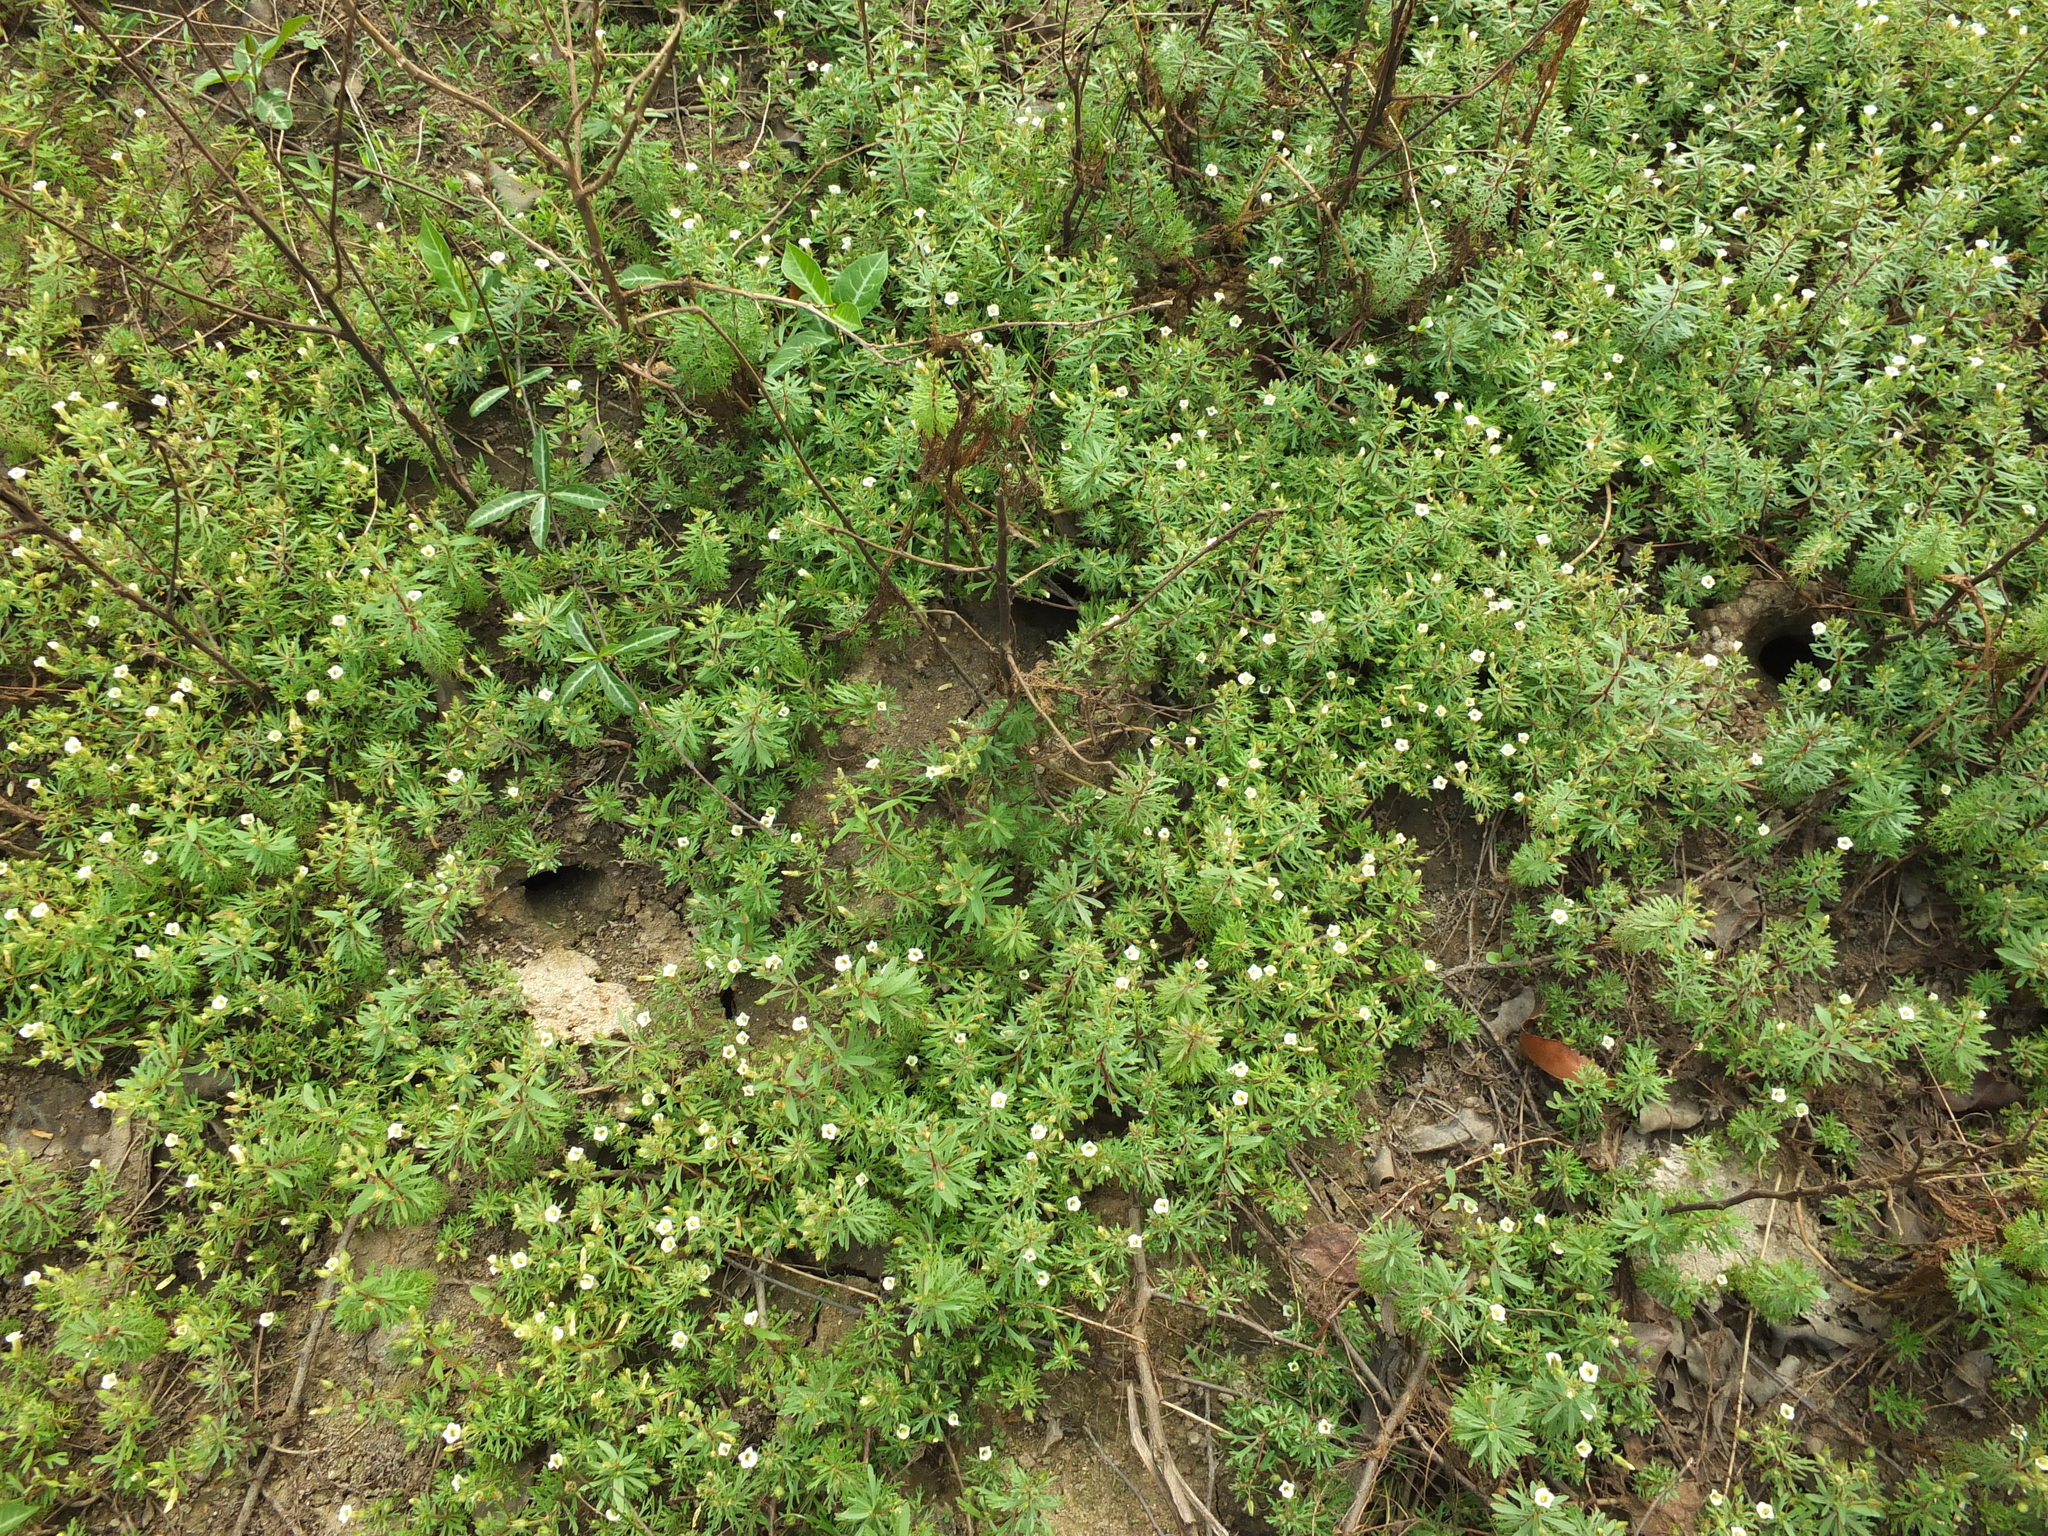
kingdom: Plantae
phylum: Tracheophyta
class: Magnoliopsida
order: Lamiales
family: Plantaginaceae
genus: Limnophila
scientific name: Limnophila indica
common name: Indian marshweed
